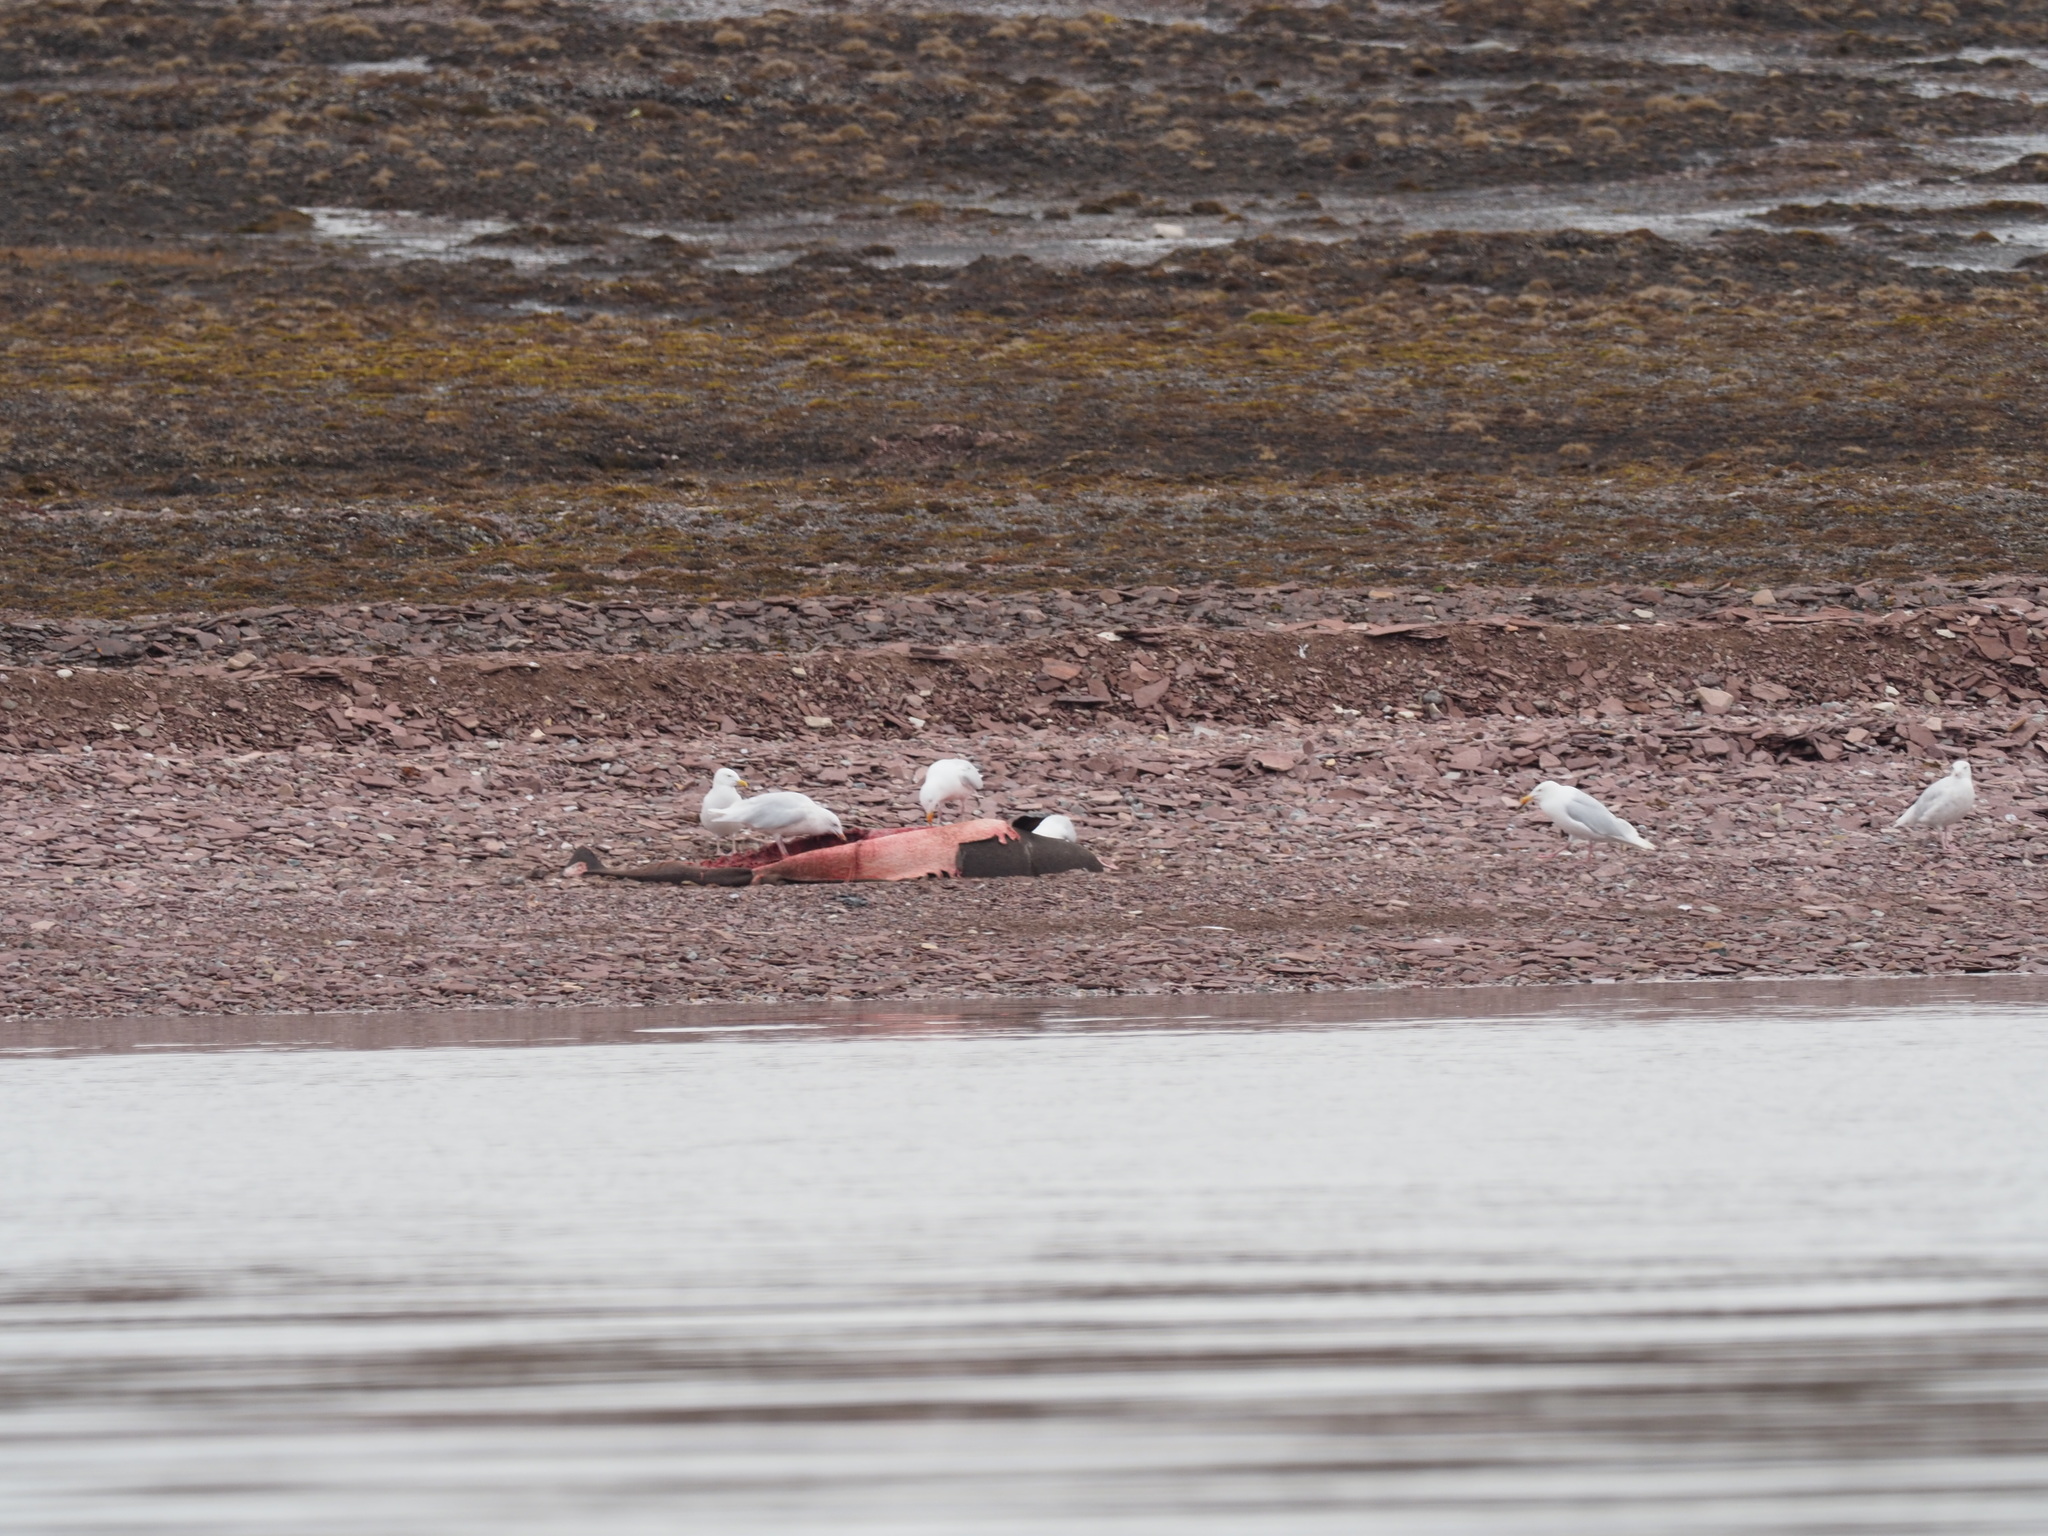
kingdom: Animalia
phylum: Chordata
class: Aves
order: Charadriiformes
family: Laridae
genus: Larus
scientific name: Larus hyperboreus
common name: Glaucous gull
